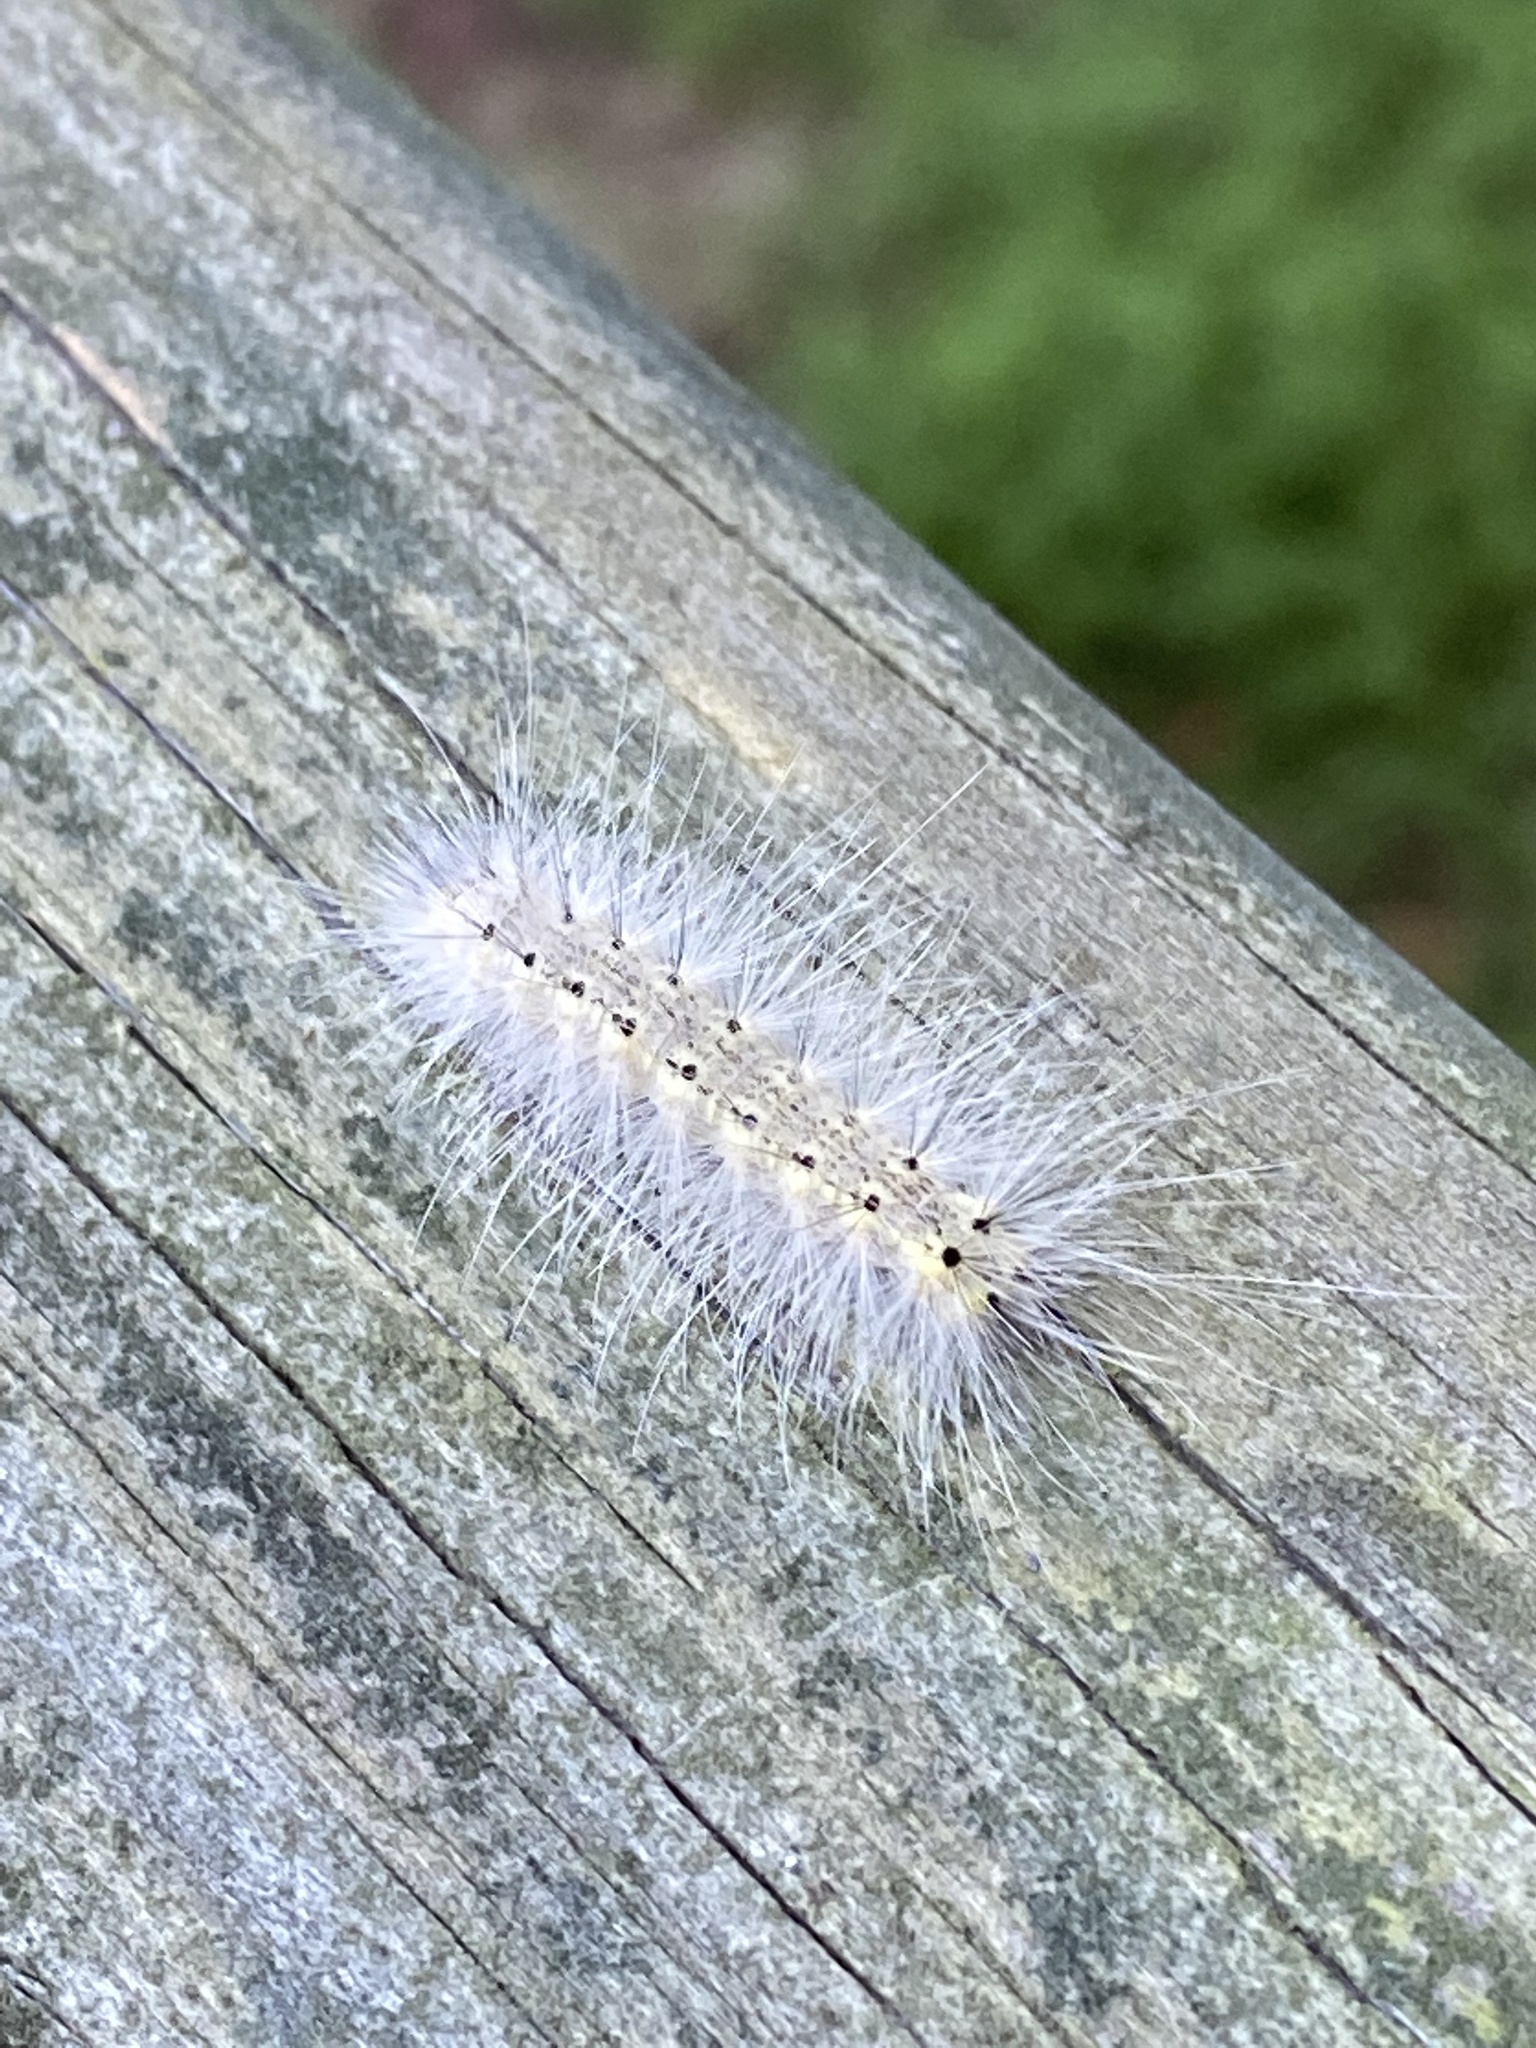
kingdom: Animalia
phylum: Arthropoda
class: Insecta
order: Lepidoptera
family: Erebidae
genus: Hyphantria
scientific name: Hyphantria cunea
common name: American white moth
